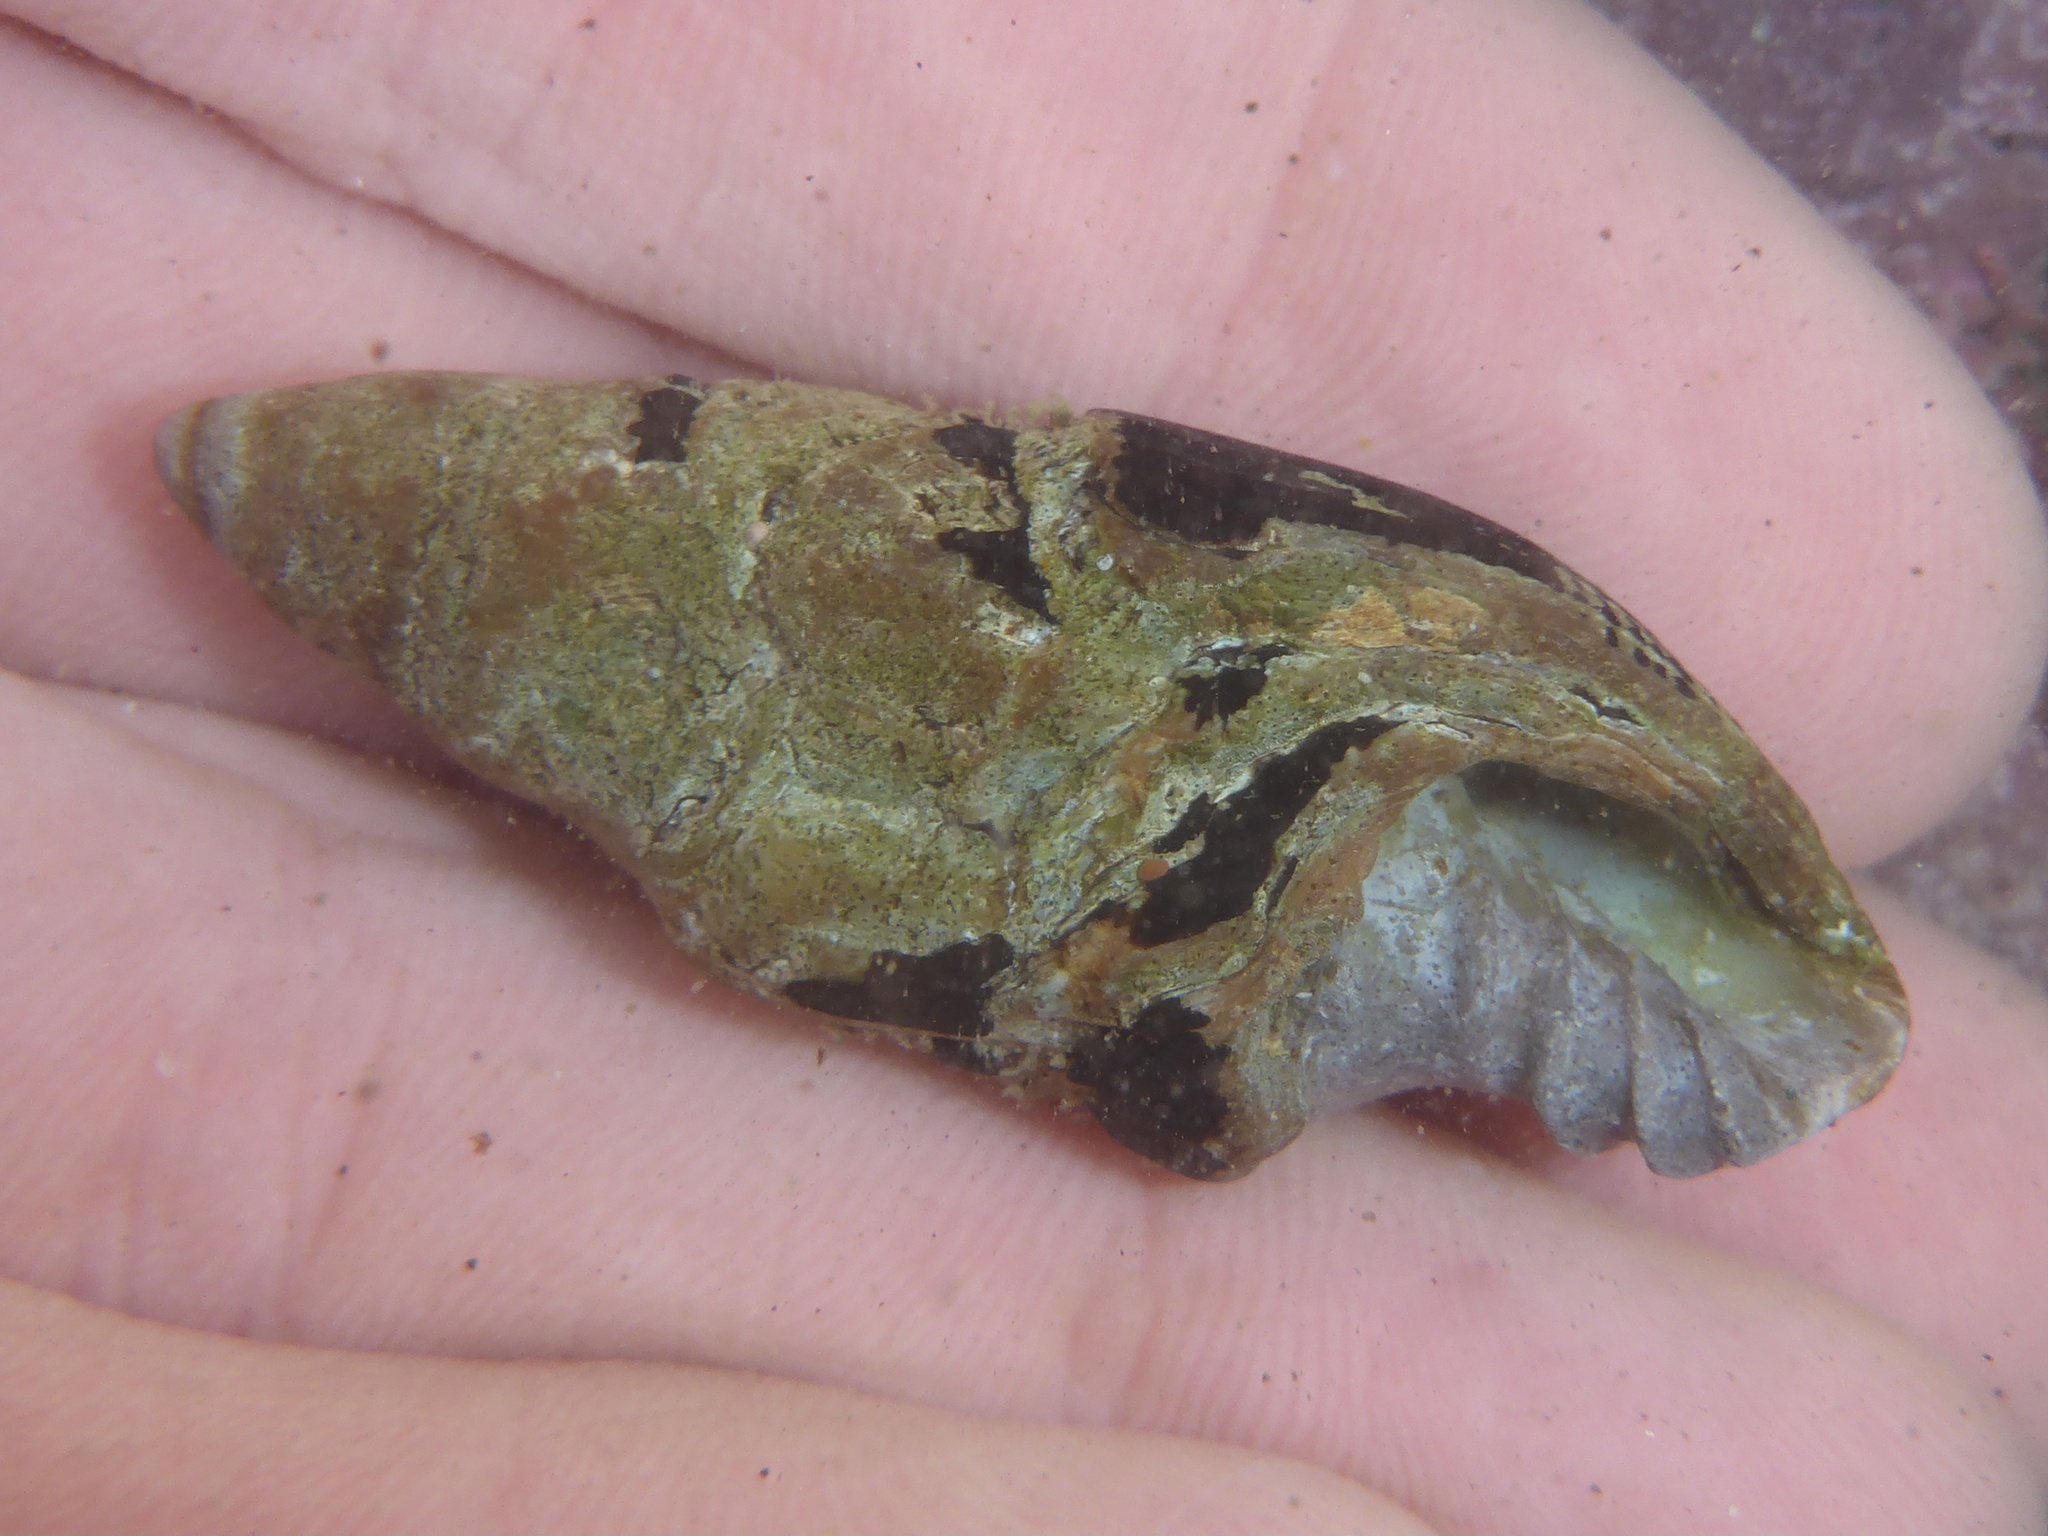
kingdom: Animalia
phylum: Mollusca
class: Gastropoda
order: Neogastropoda
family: Mitridae
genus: Atrimitra
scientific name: Atrimitra idae
